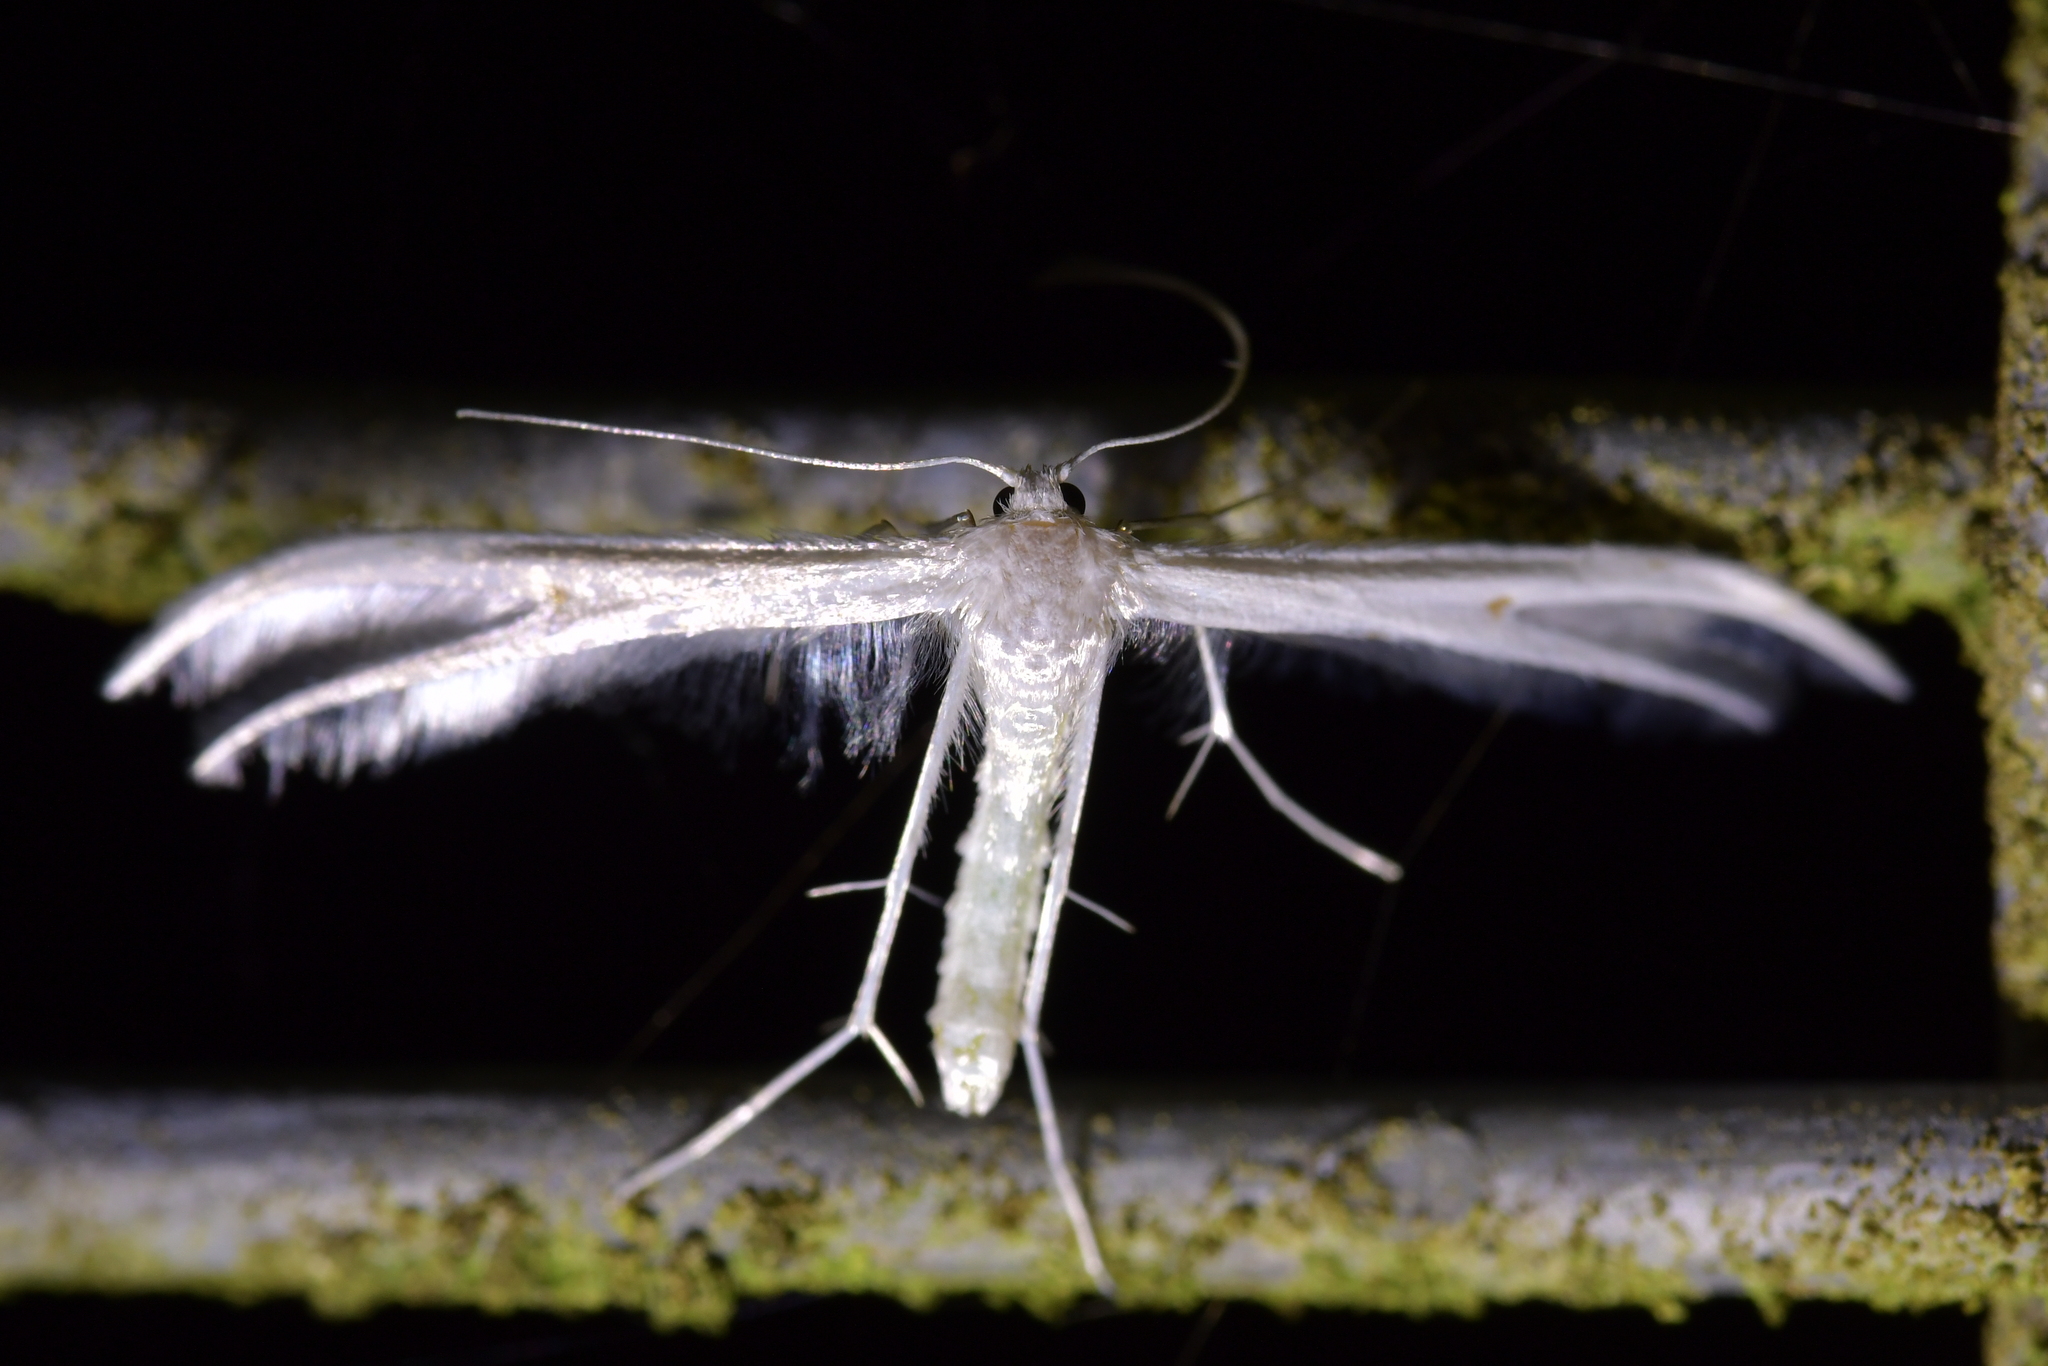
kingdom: Animalia
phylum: Arthropoda
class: Insecta
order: Lepidoptera
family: Pterophoridae
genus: Pterophorus
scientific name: Pterophorus monospilalis
